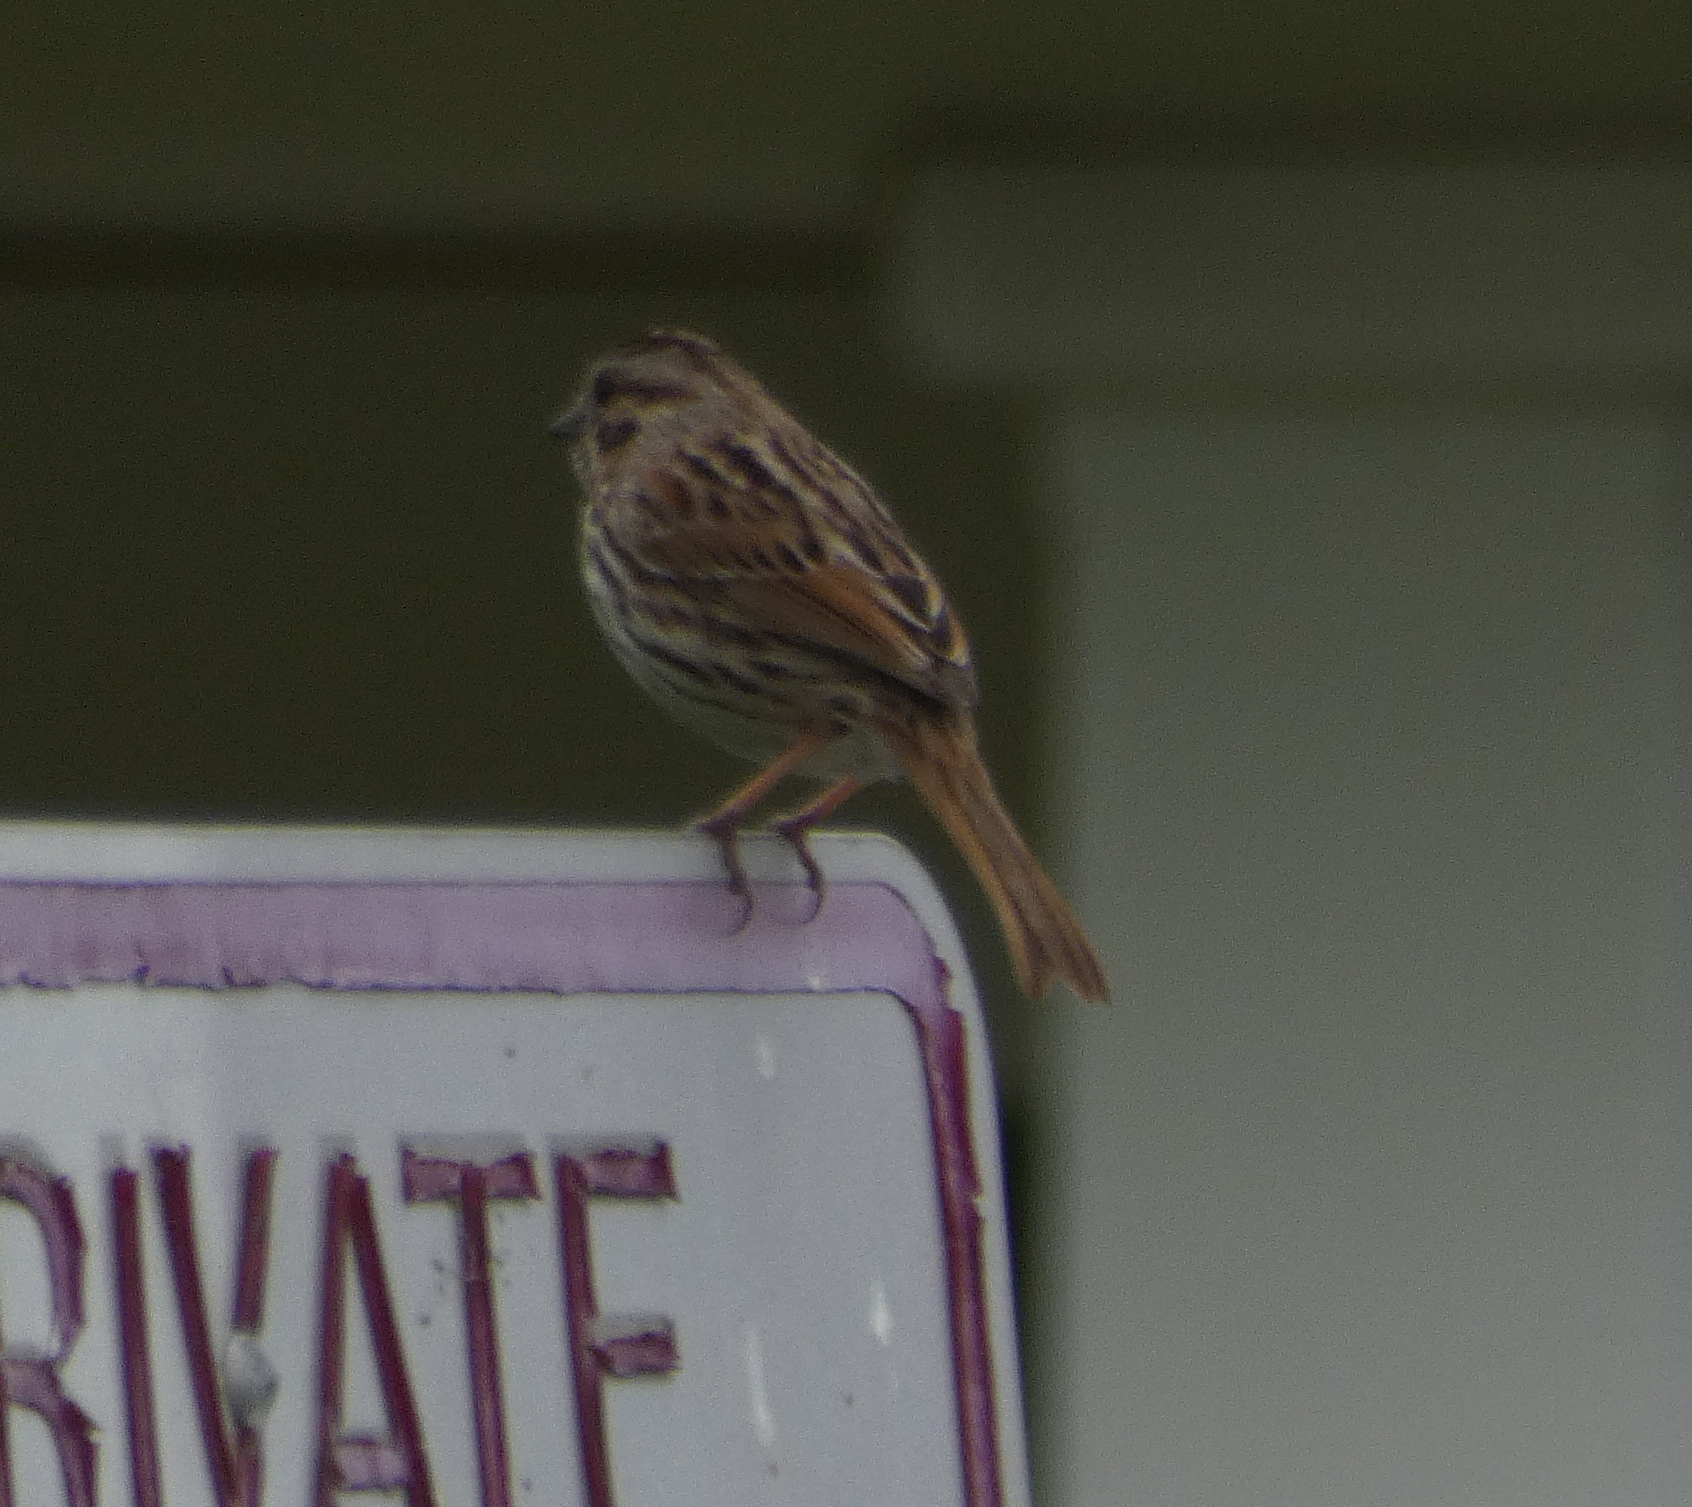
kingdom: Animalia
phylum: Chordata
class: Aves
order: Passeriformes
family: Passerellidae
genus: Melospiza
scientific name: Melospiza melodia
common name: Song sparrow
